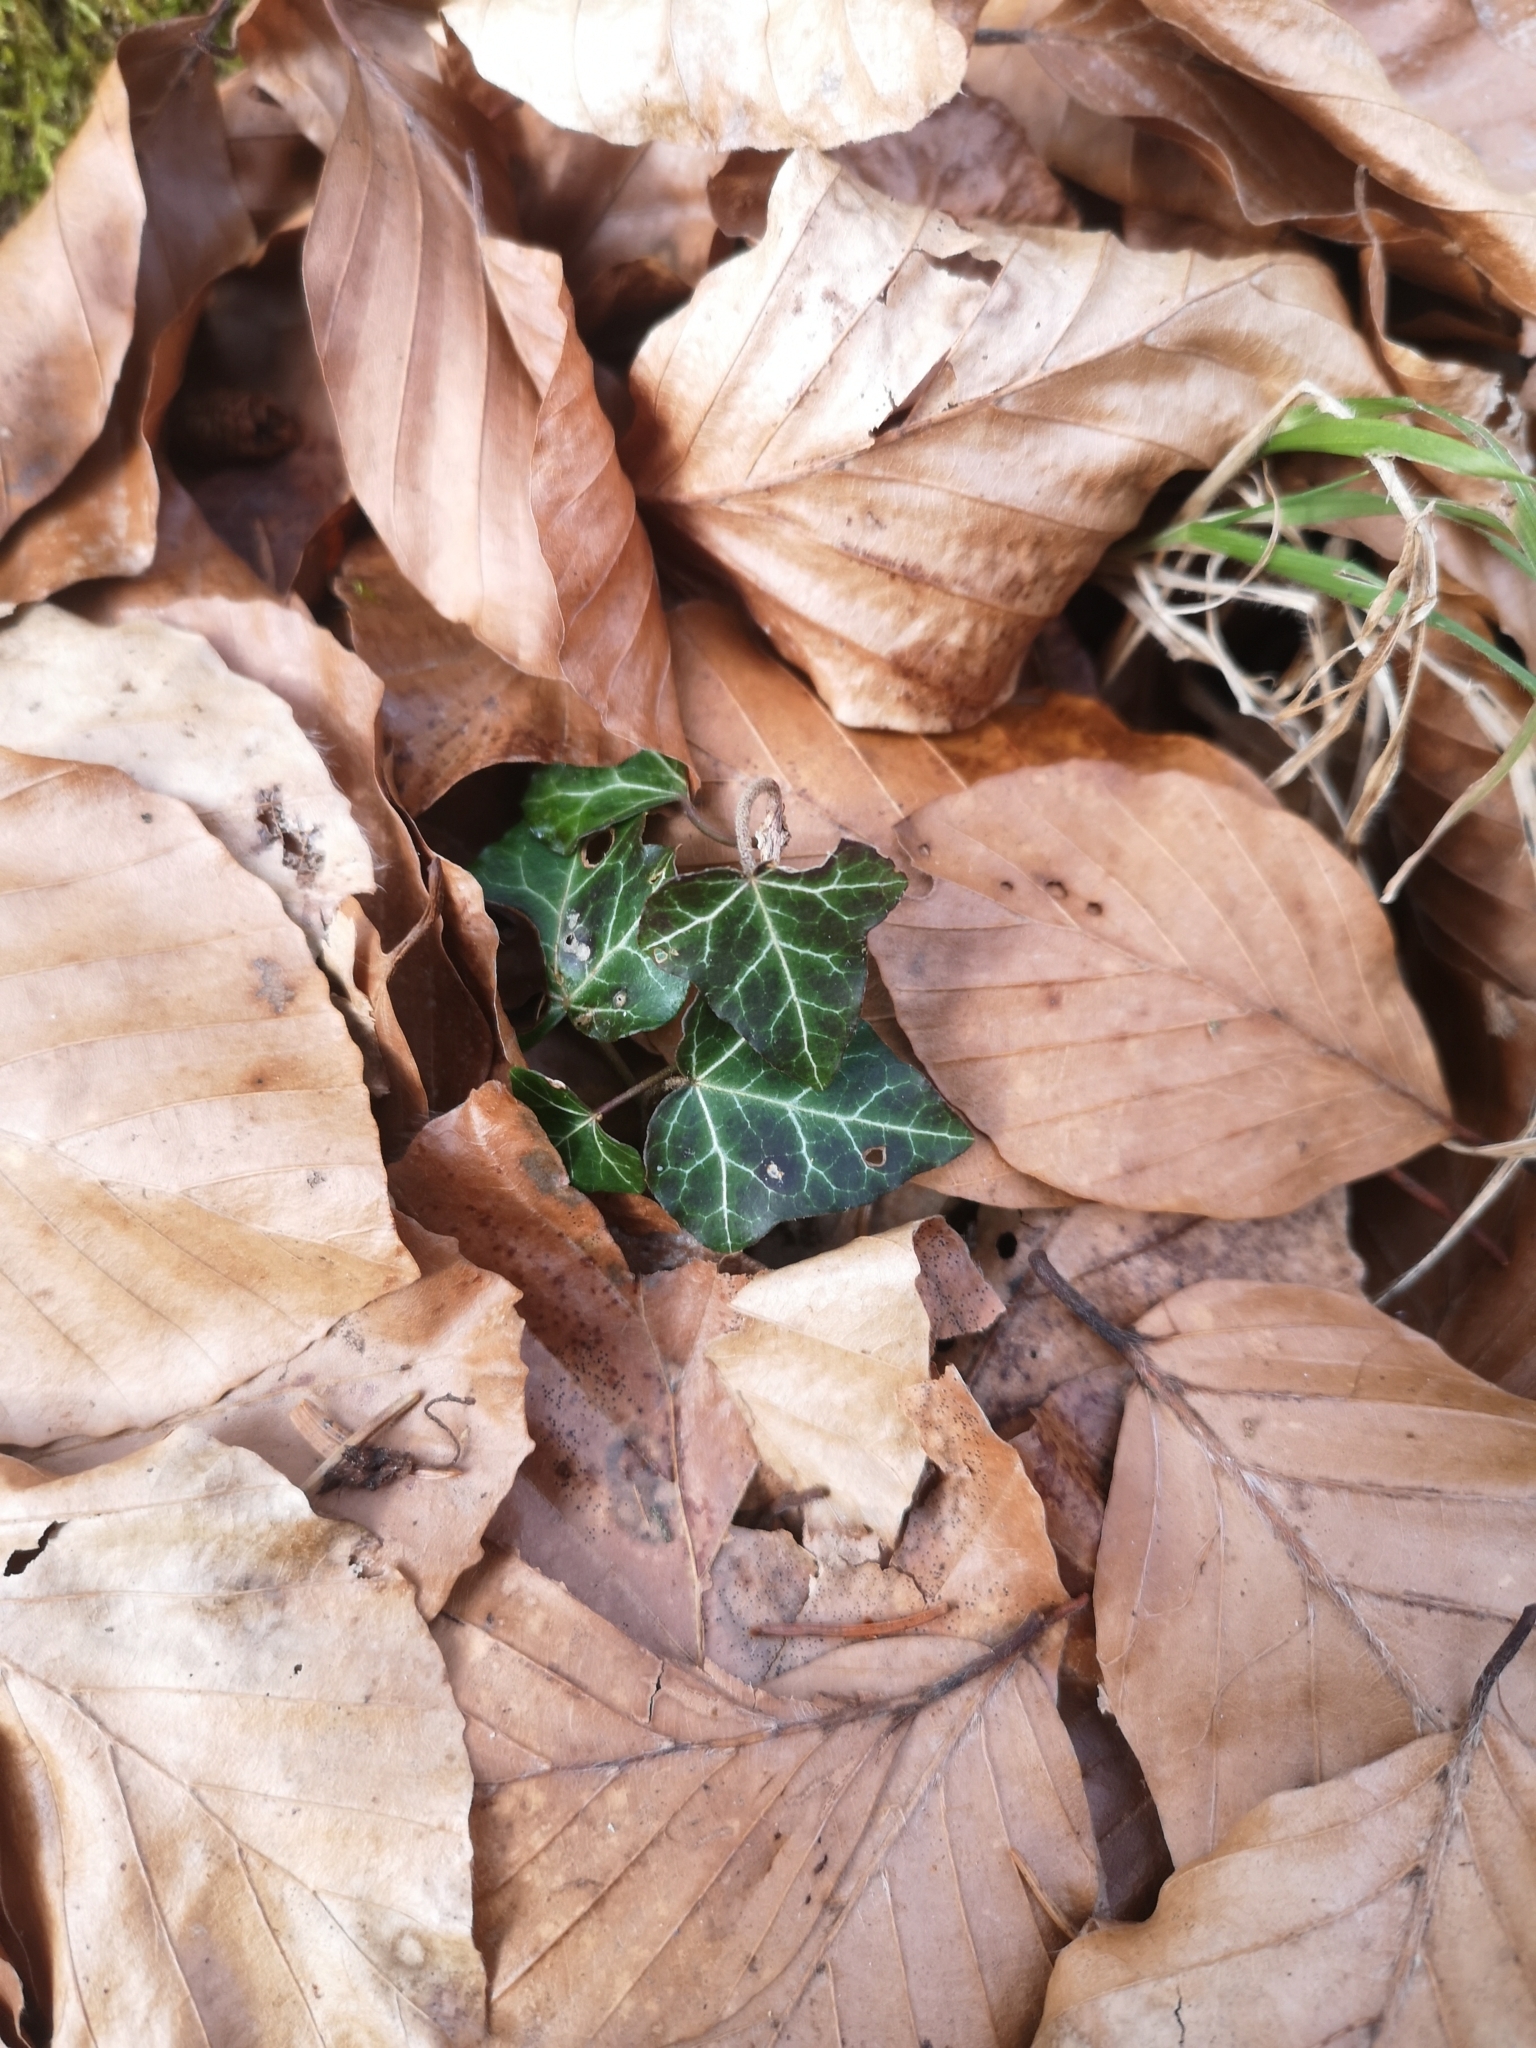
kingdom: Plantae
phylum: Tracheophyta
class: Magnoliopsida
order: Apiales
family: Araliaceae
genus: Hedera
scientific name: Hedera helix
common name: Ivy
